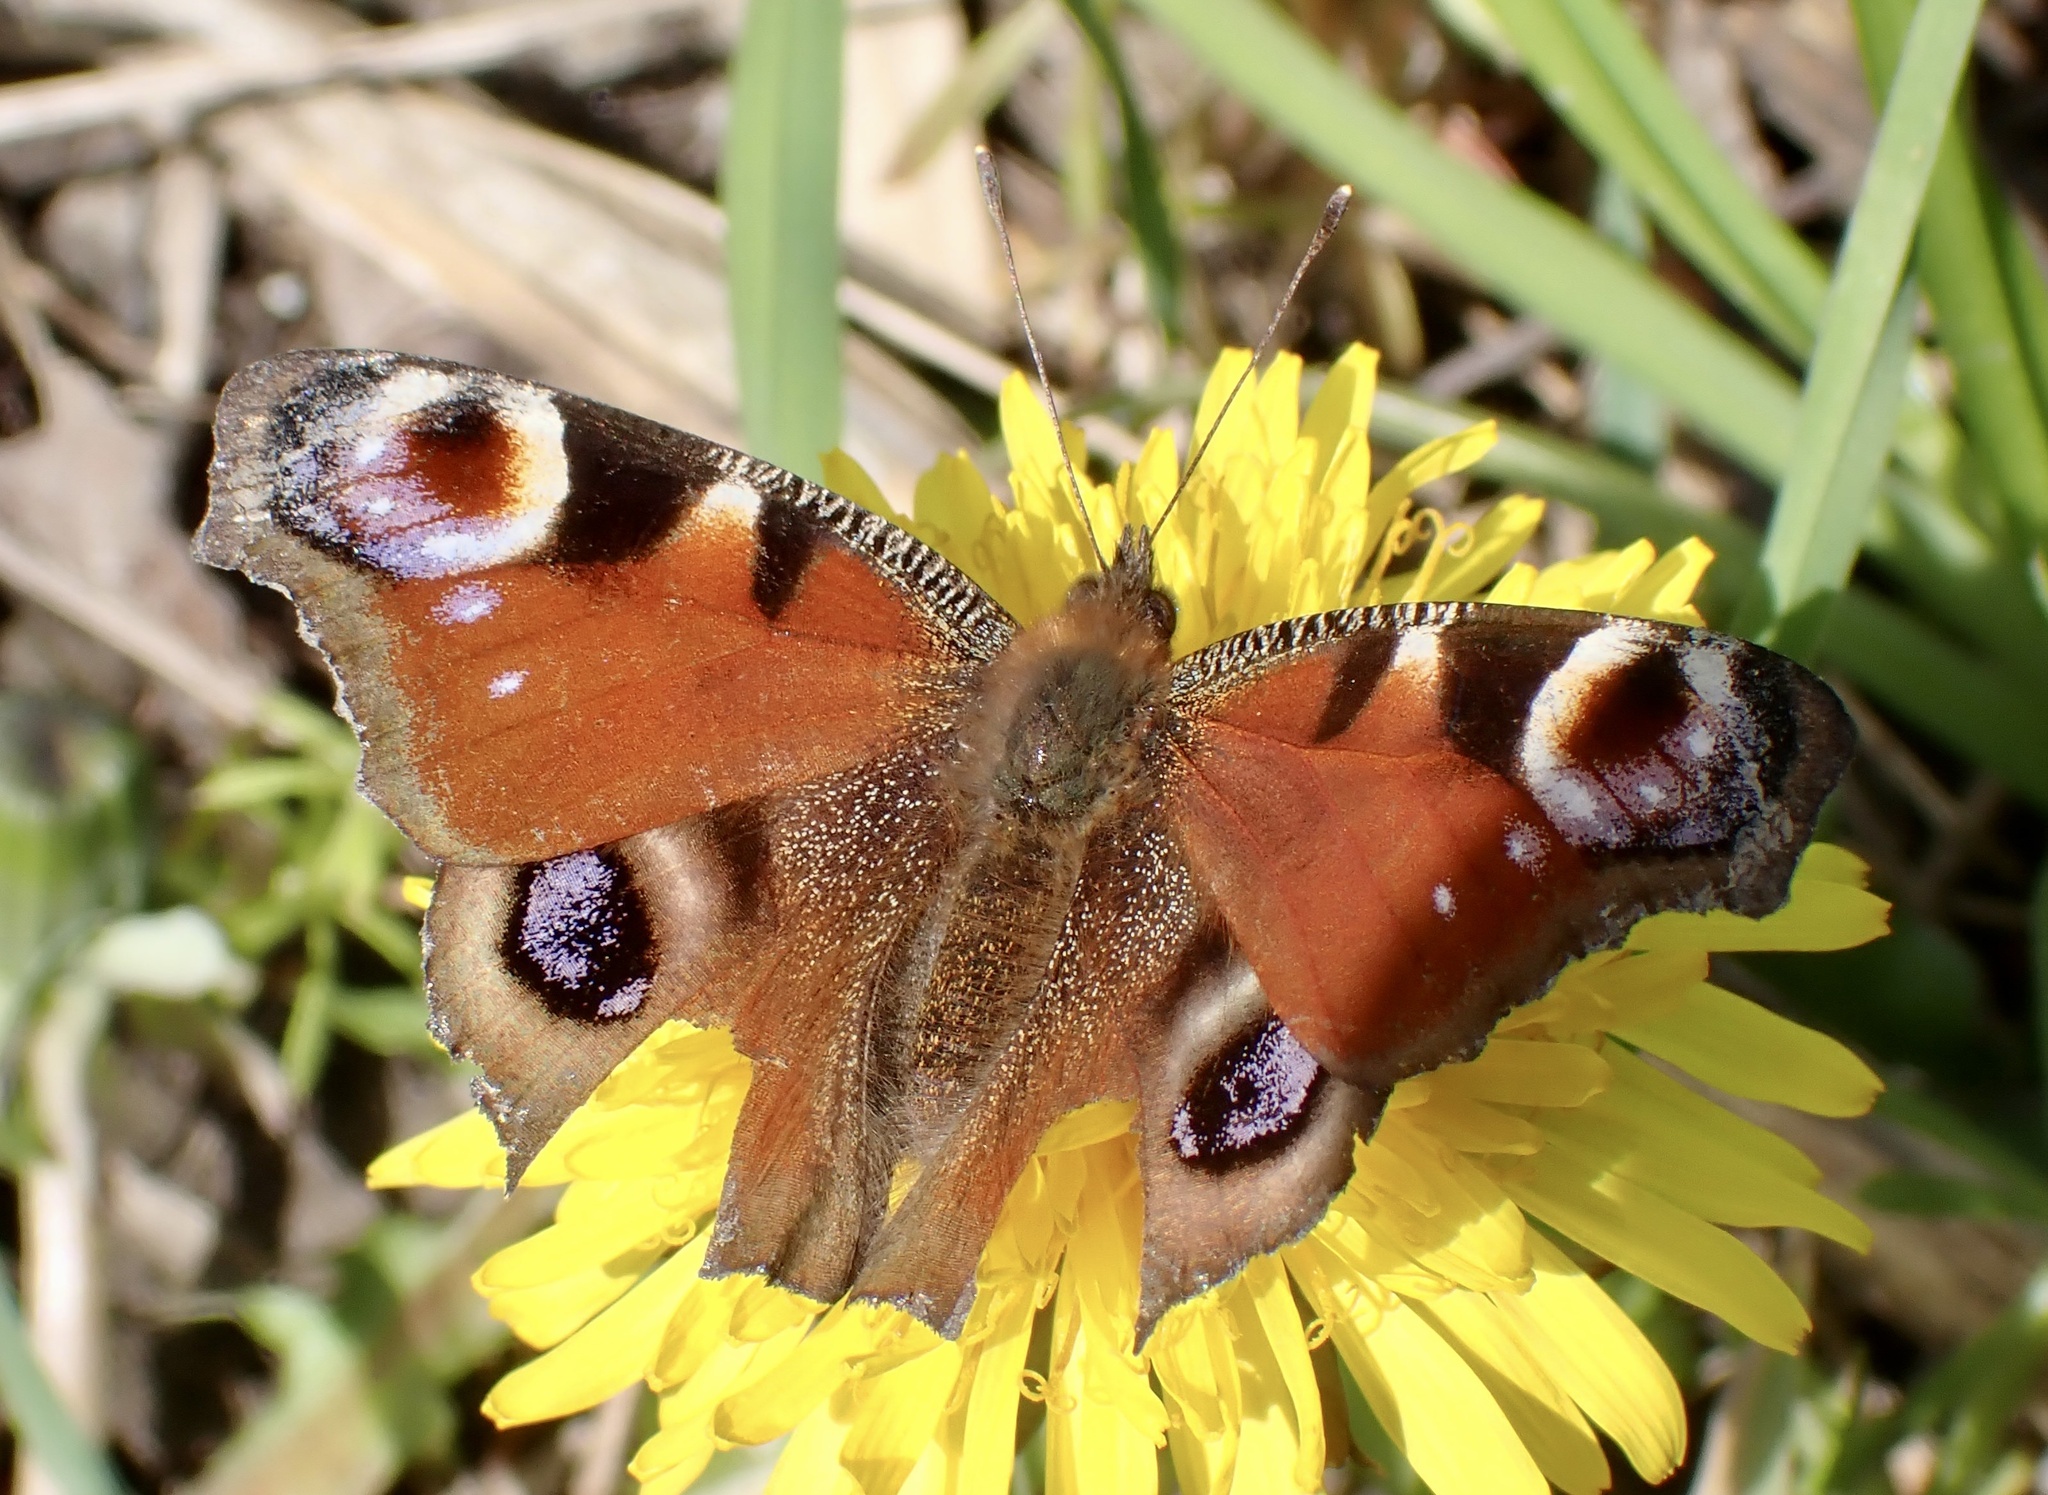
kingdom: Animalia
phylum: Arthropoda
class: Insecta
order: Lepidoptera
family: Nymphalidae
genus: Aglais
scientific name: Aglais io
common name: Peacock
